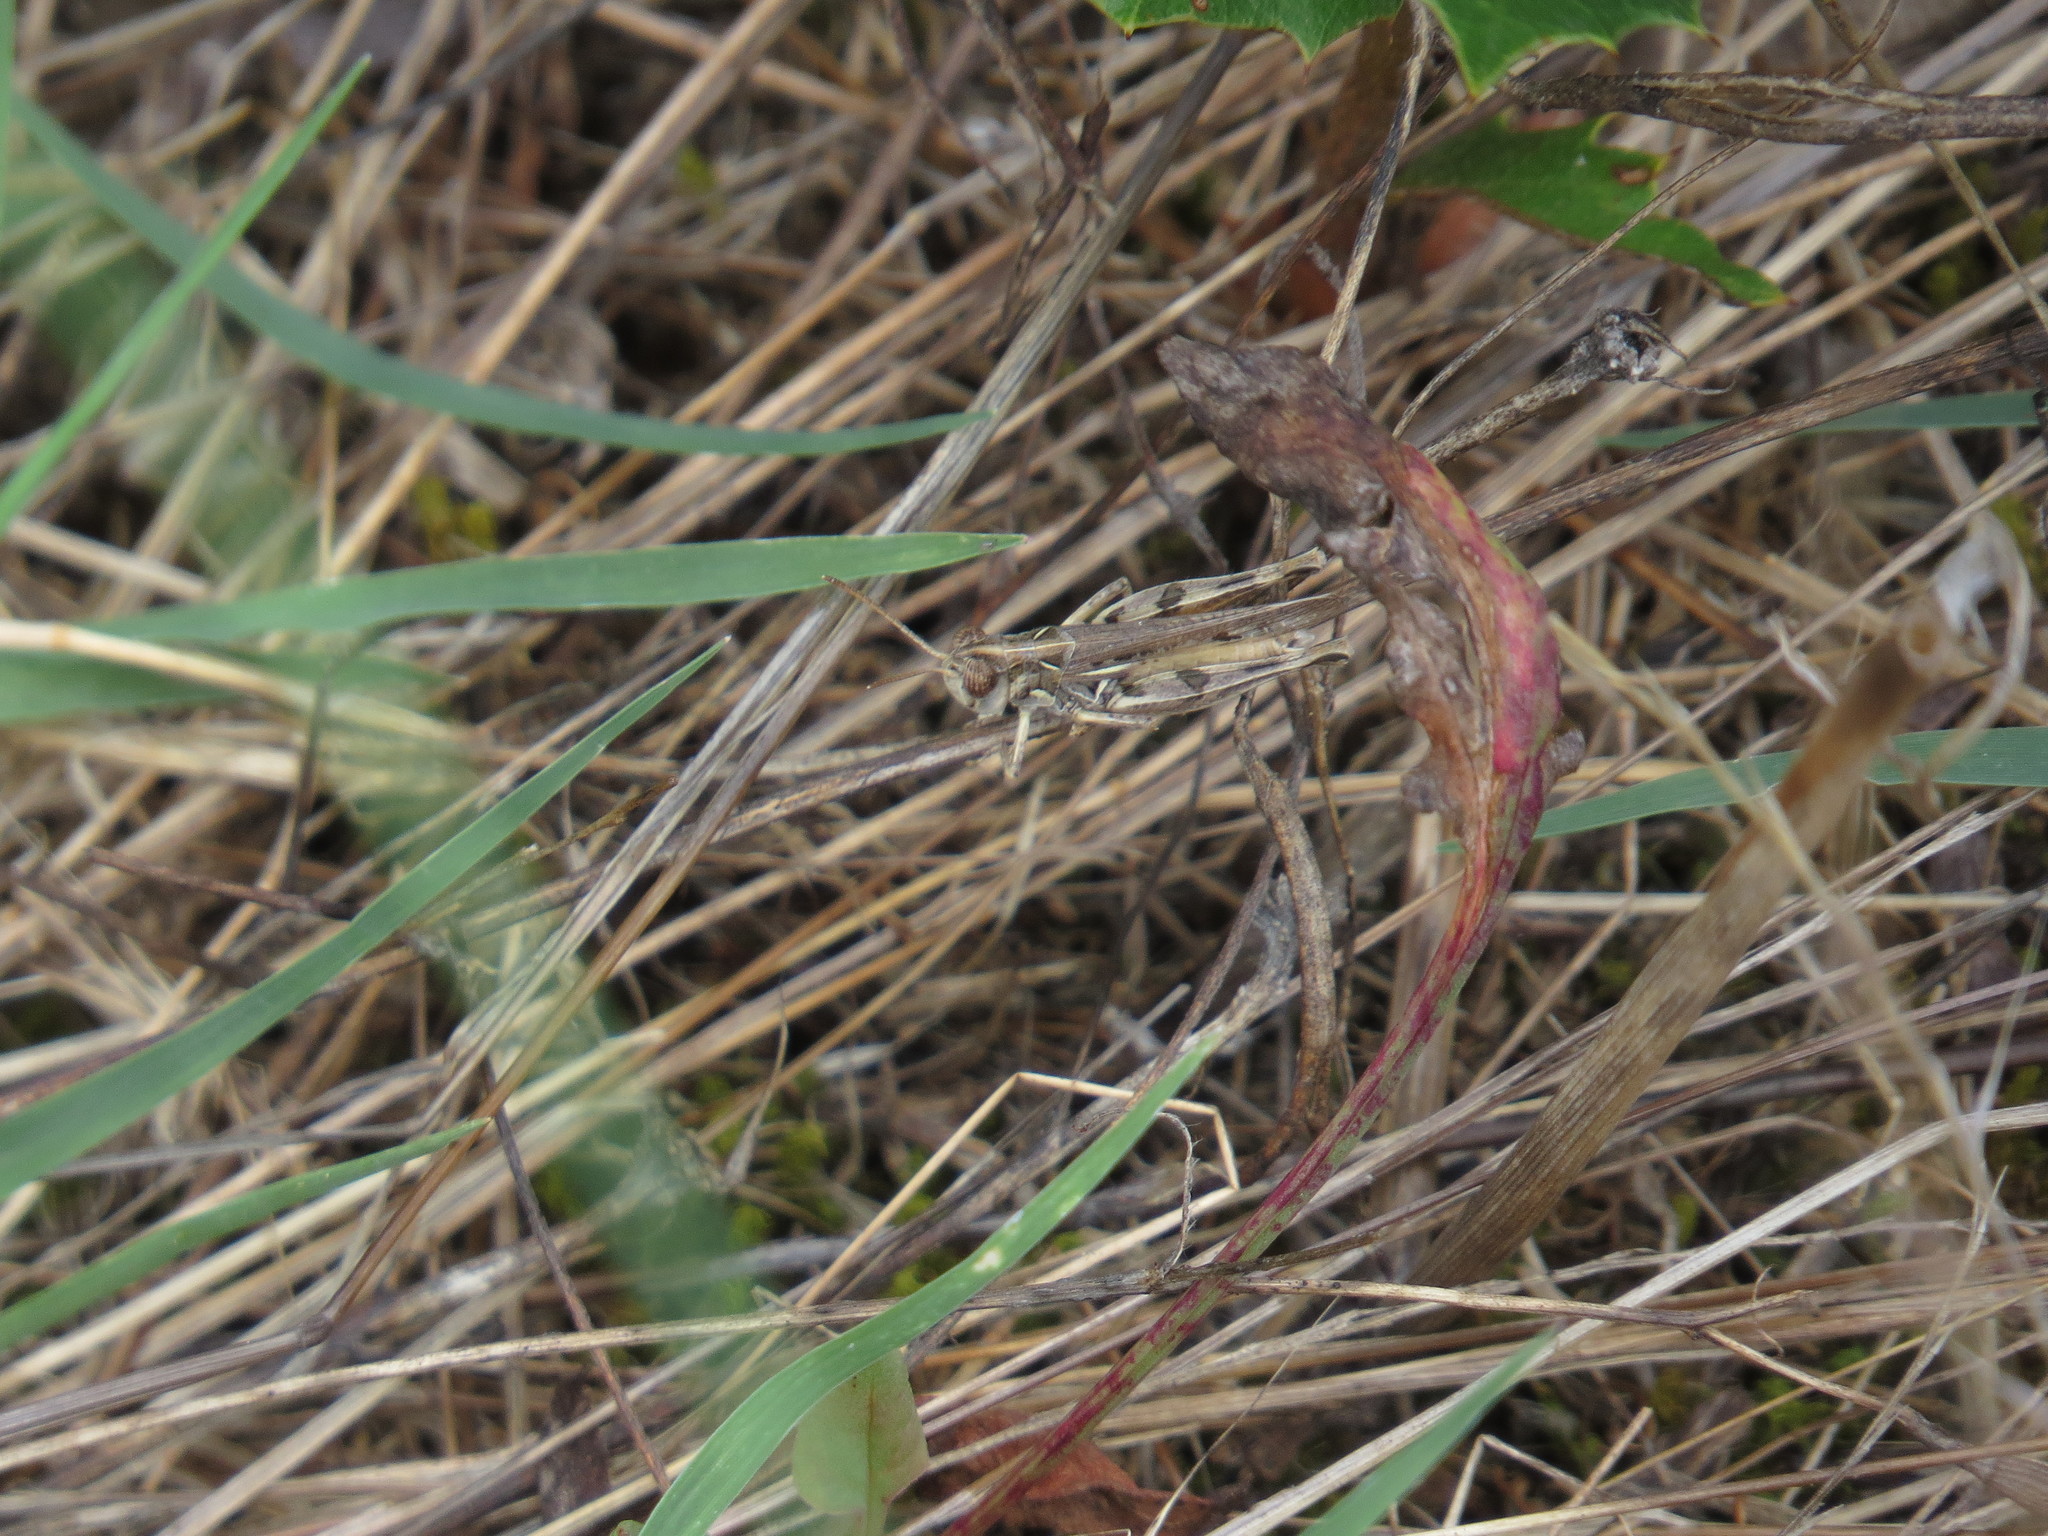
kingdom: Animalia
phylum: Arthropoda
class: Insecta
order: Orthoptera
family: Acrididae
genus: Dociostaurus
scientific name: Dociostaurus maroccanus
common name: Moroccan locust
